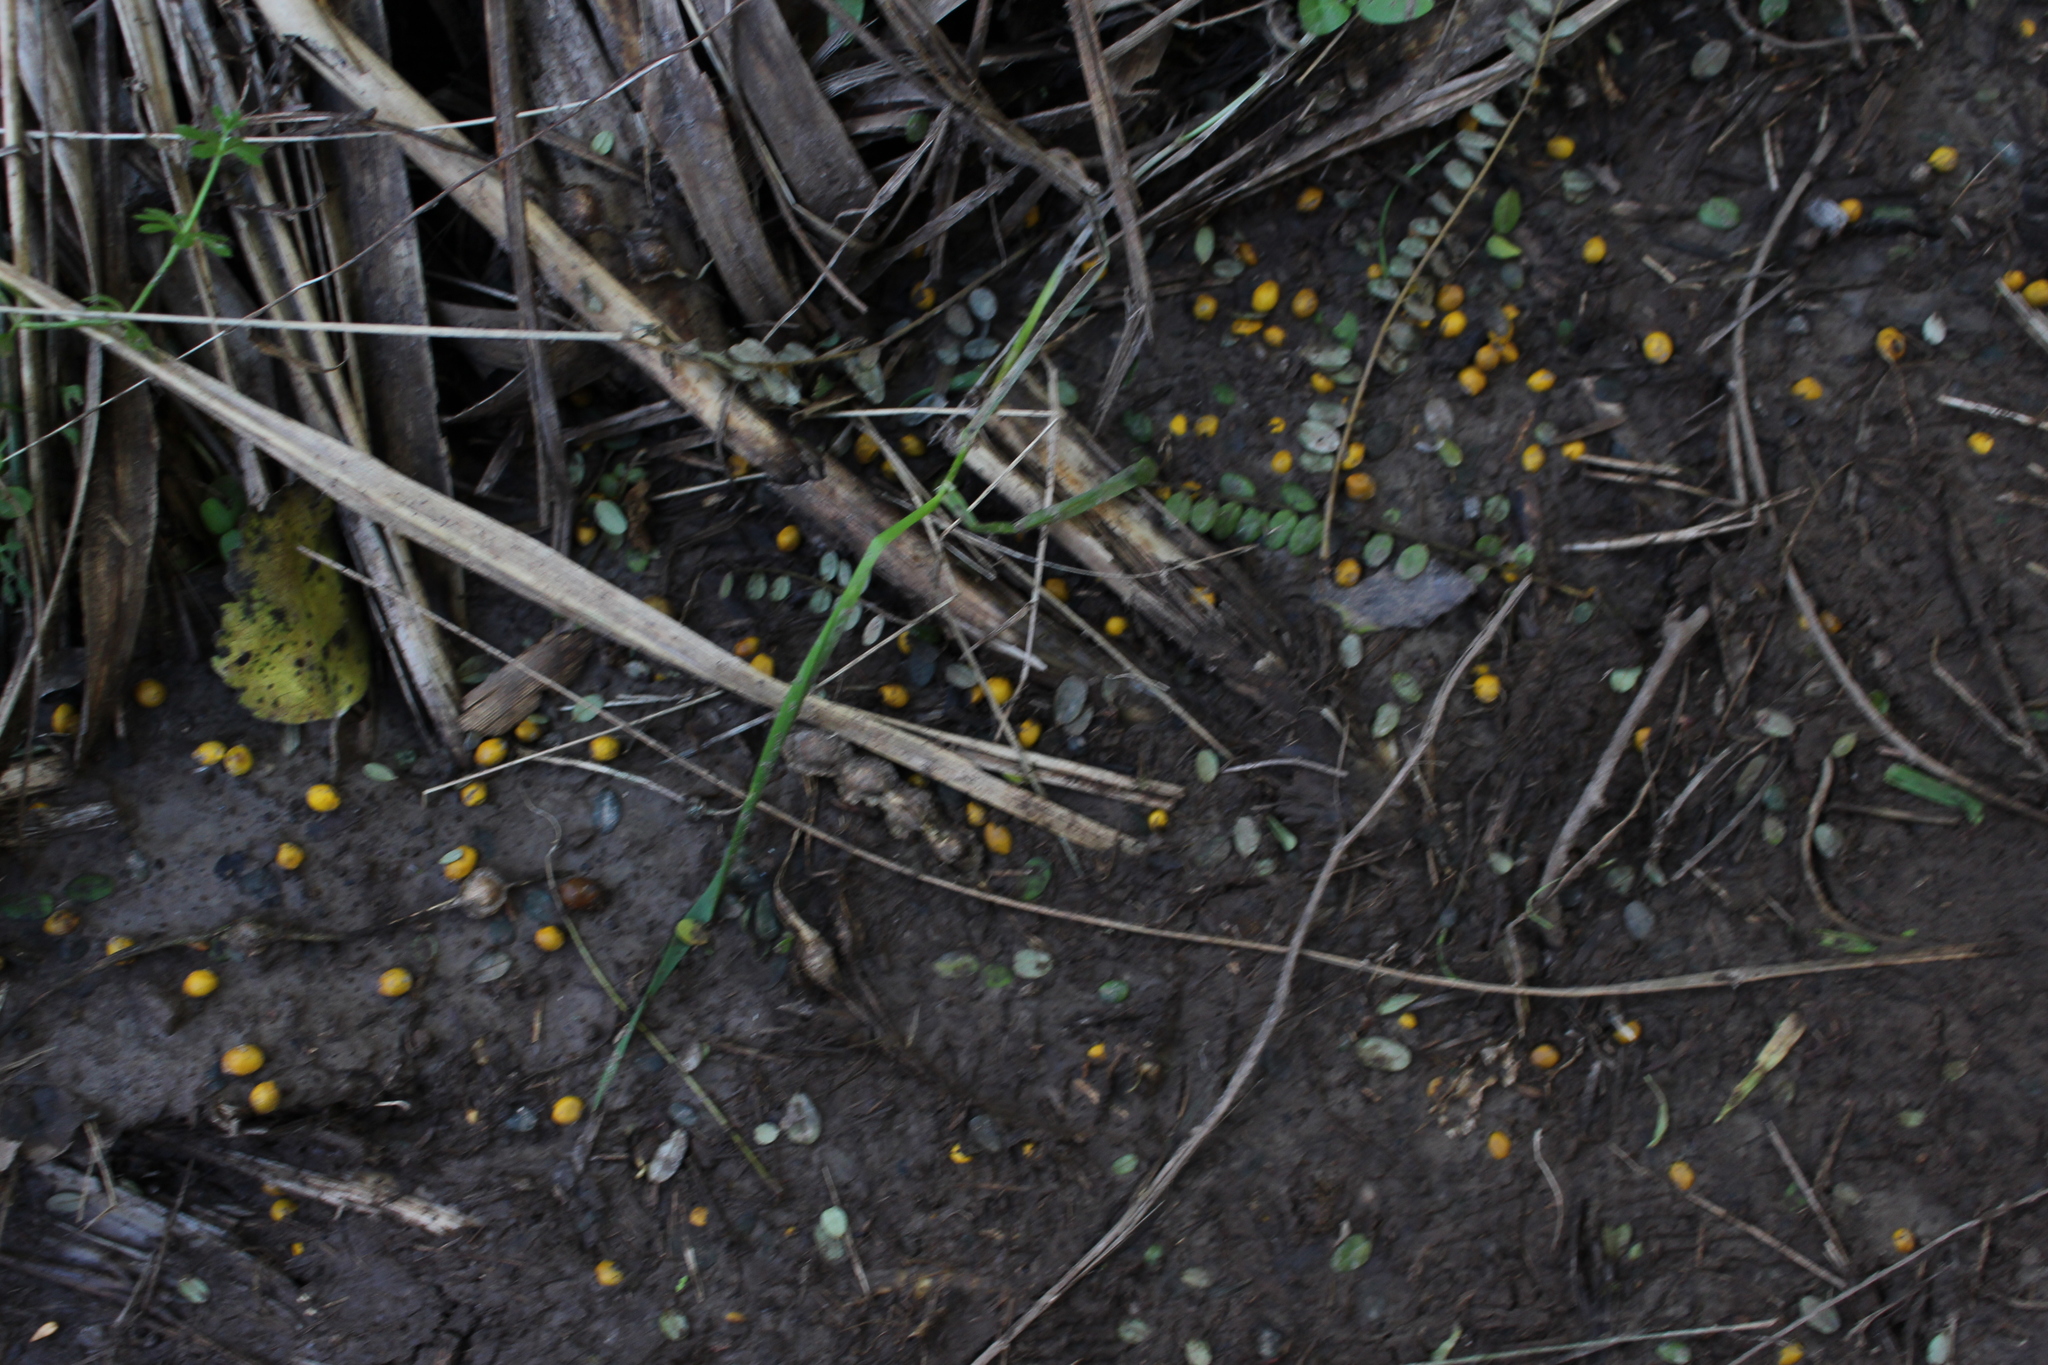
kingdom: Plantae
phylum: Tracheophyta
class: Magnoliopsida
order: Fabales
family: Fabaceae
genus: Sophora
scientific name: Sophora microphylla
